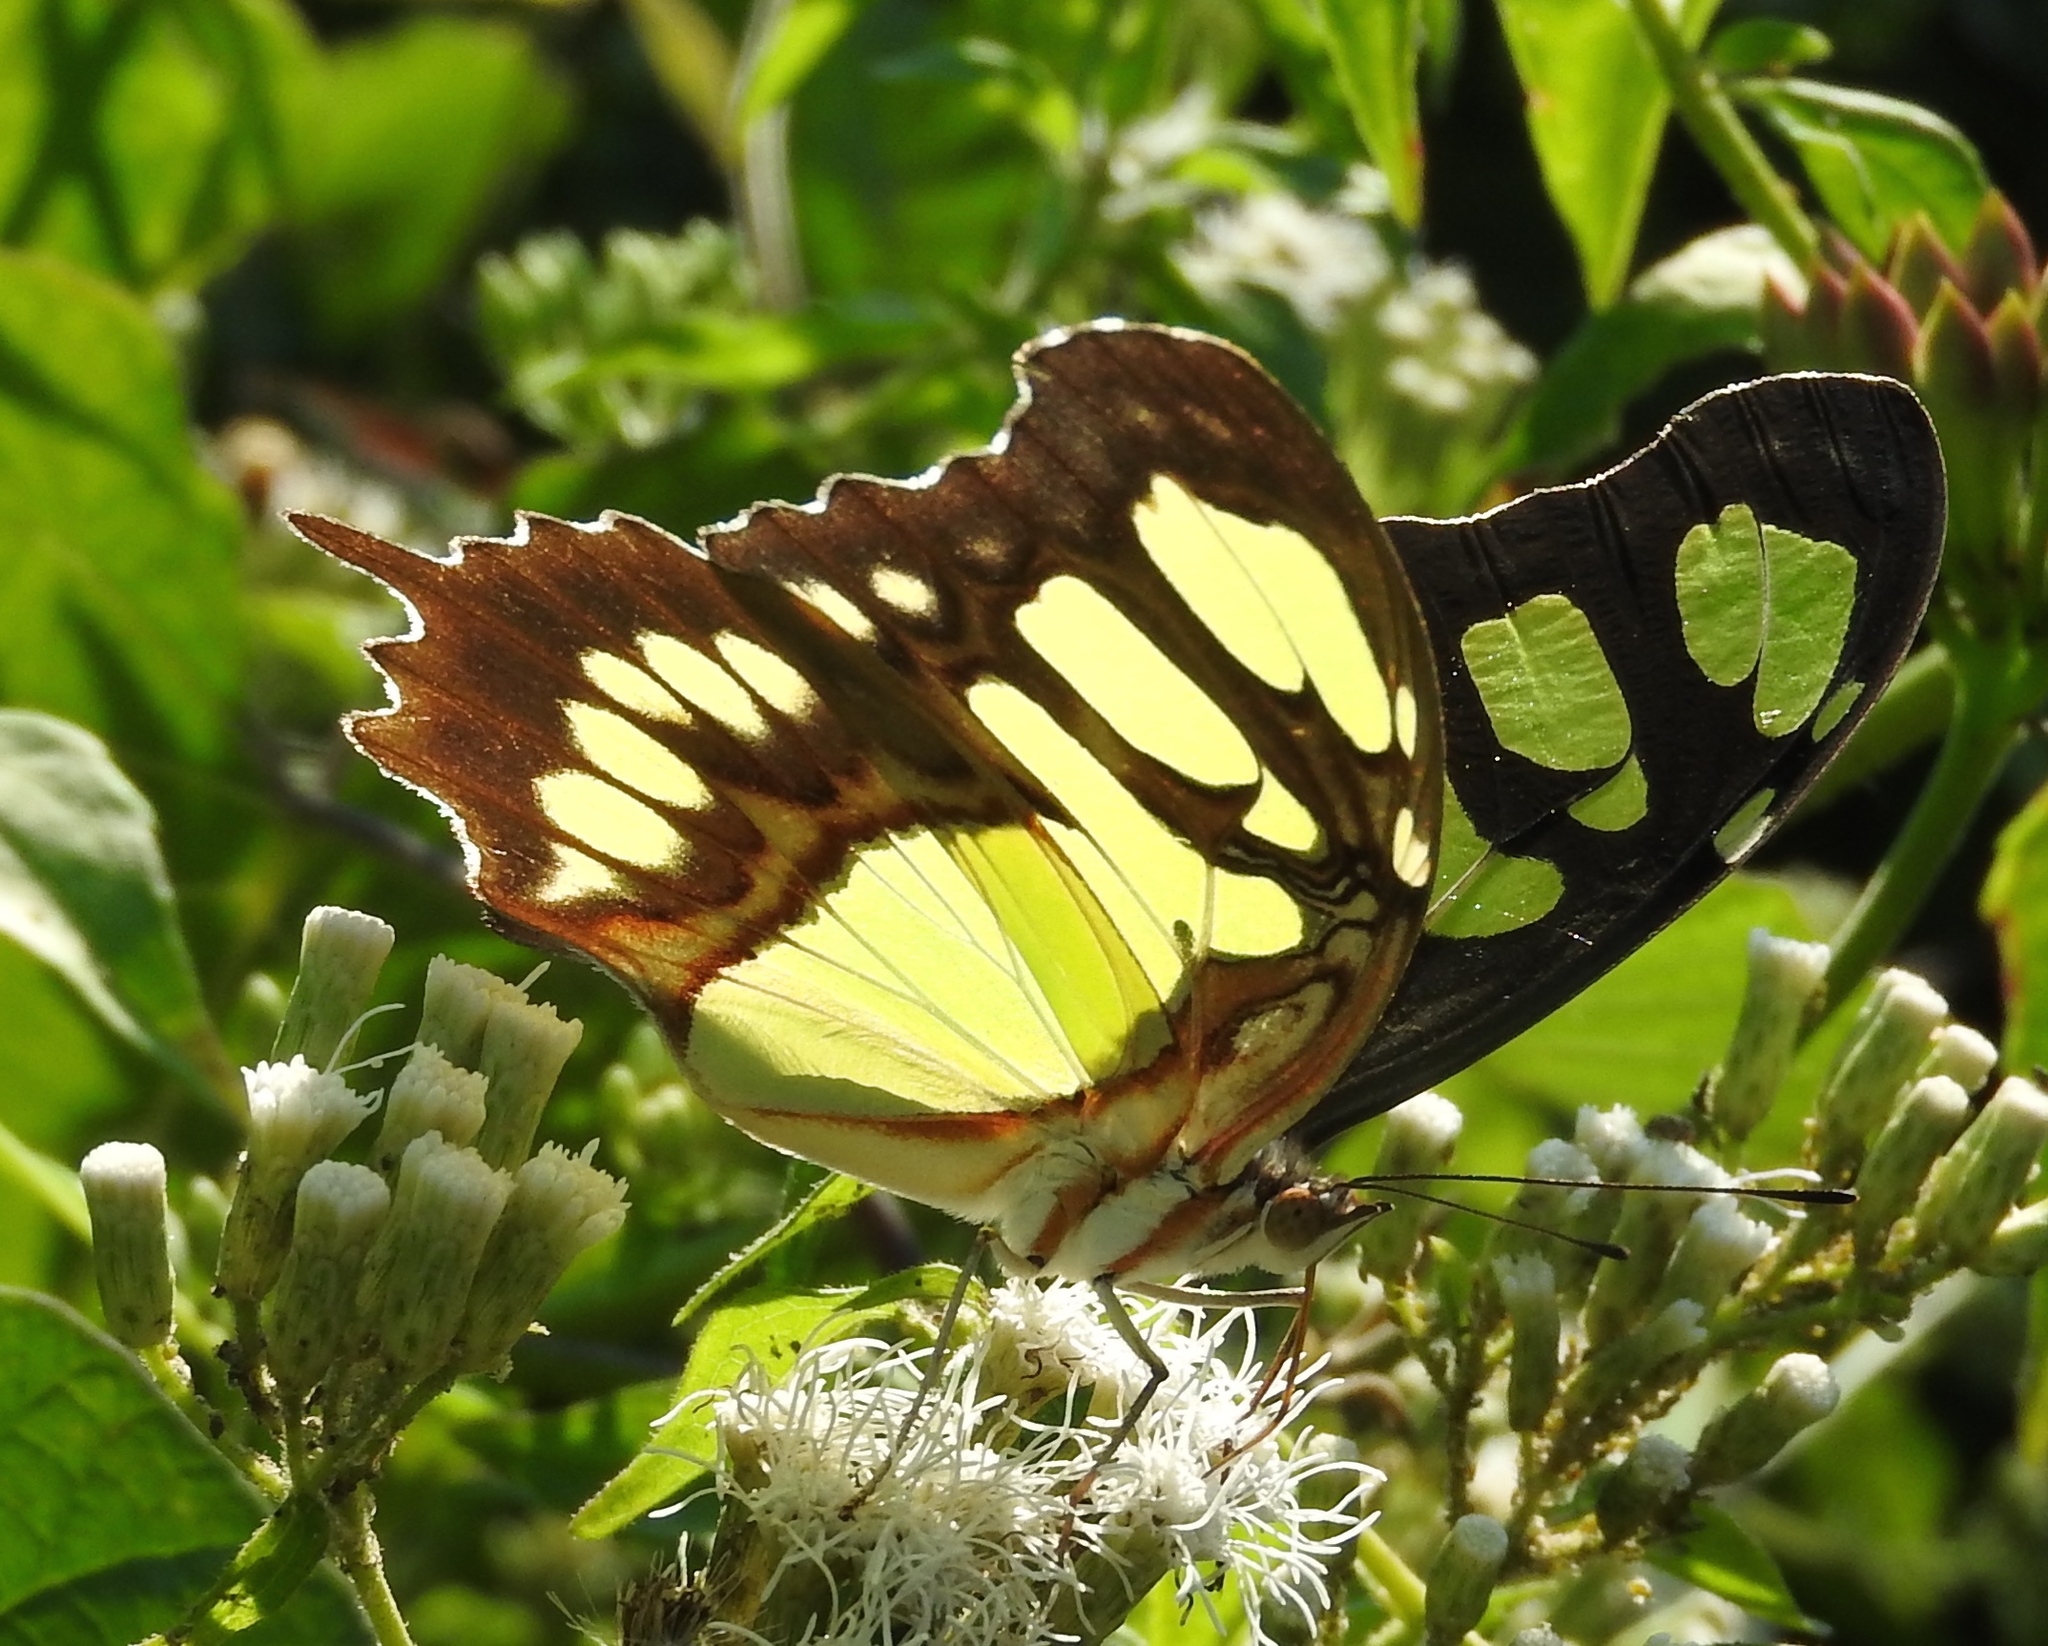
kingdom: Animalia
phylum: Arthropoda
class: Insecta
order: Lepidoptera
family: Nymphalidae
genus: Siproeta
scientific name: Siproeta stelenes
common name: Malachite
